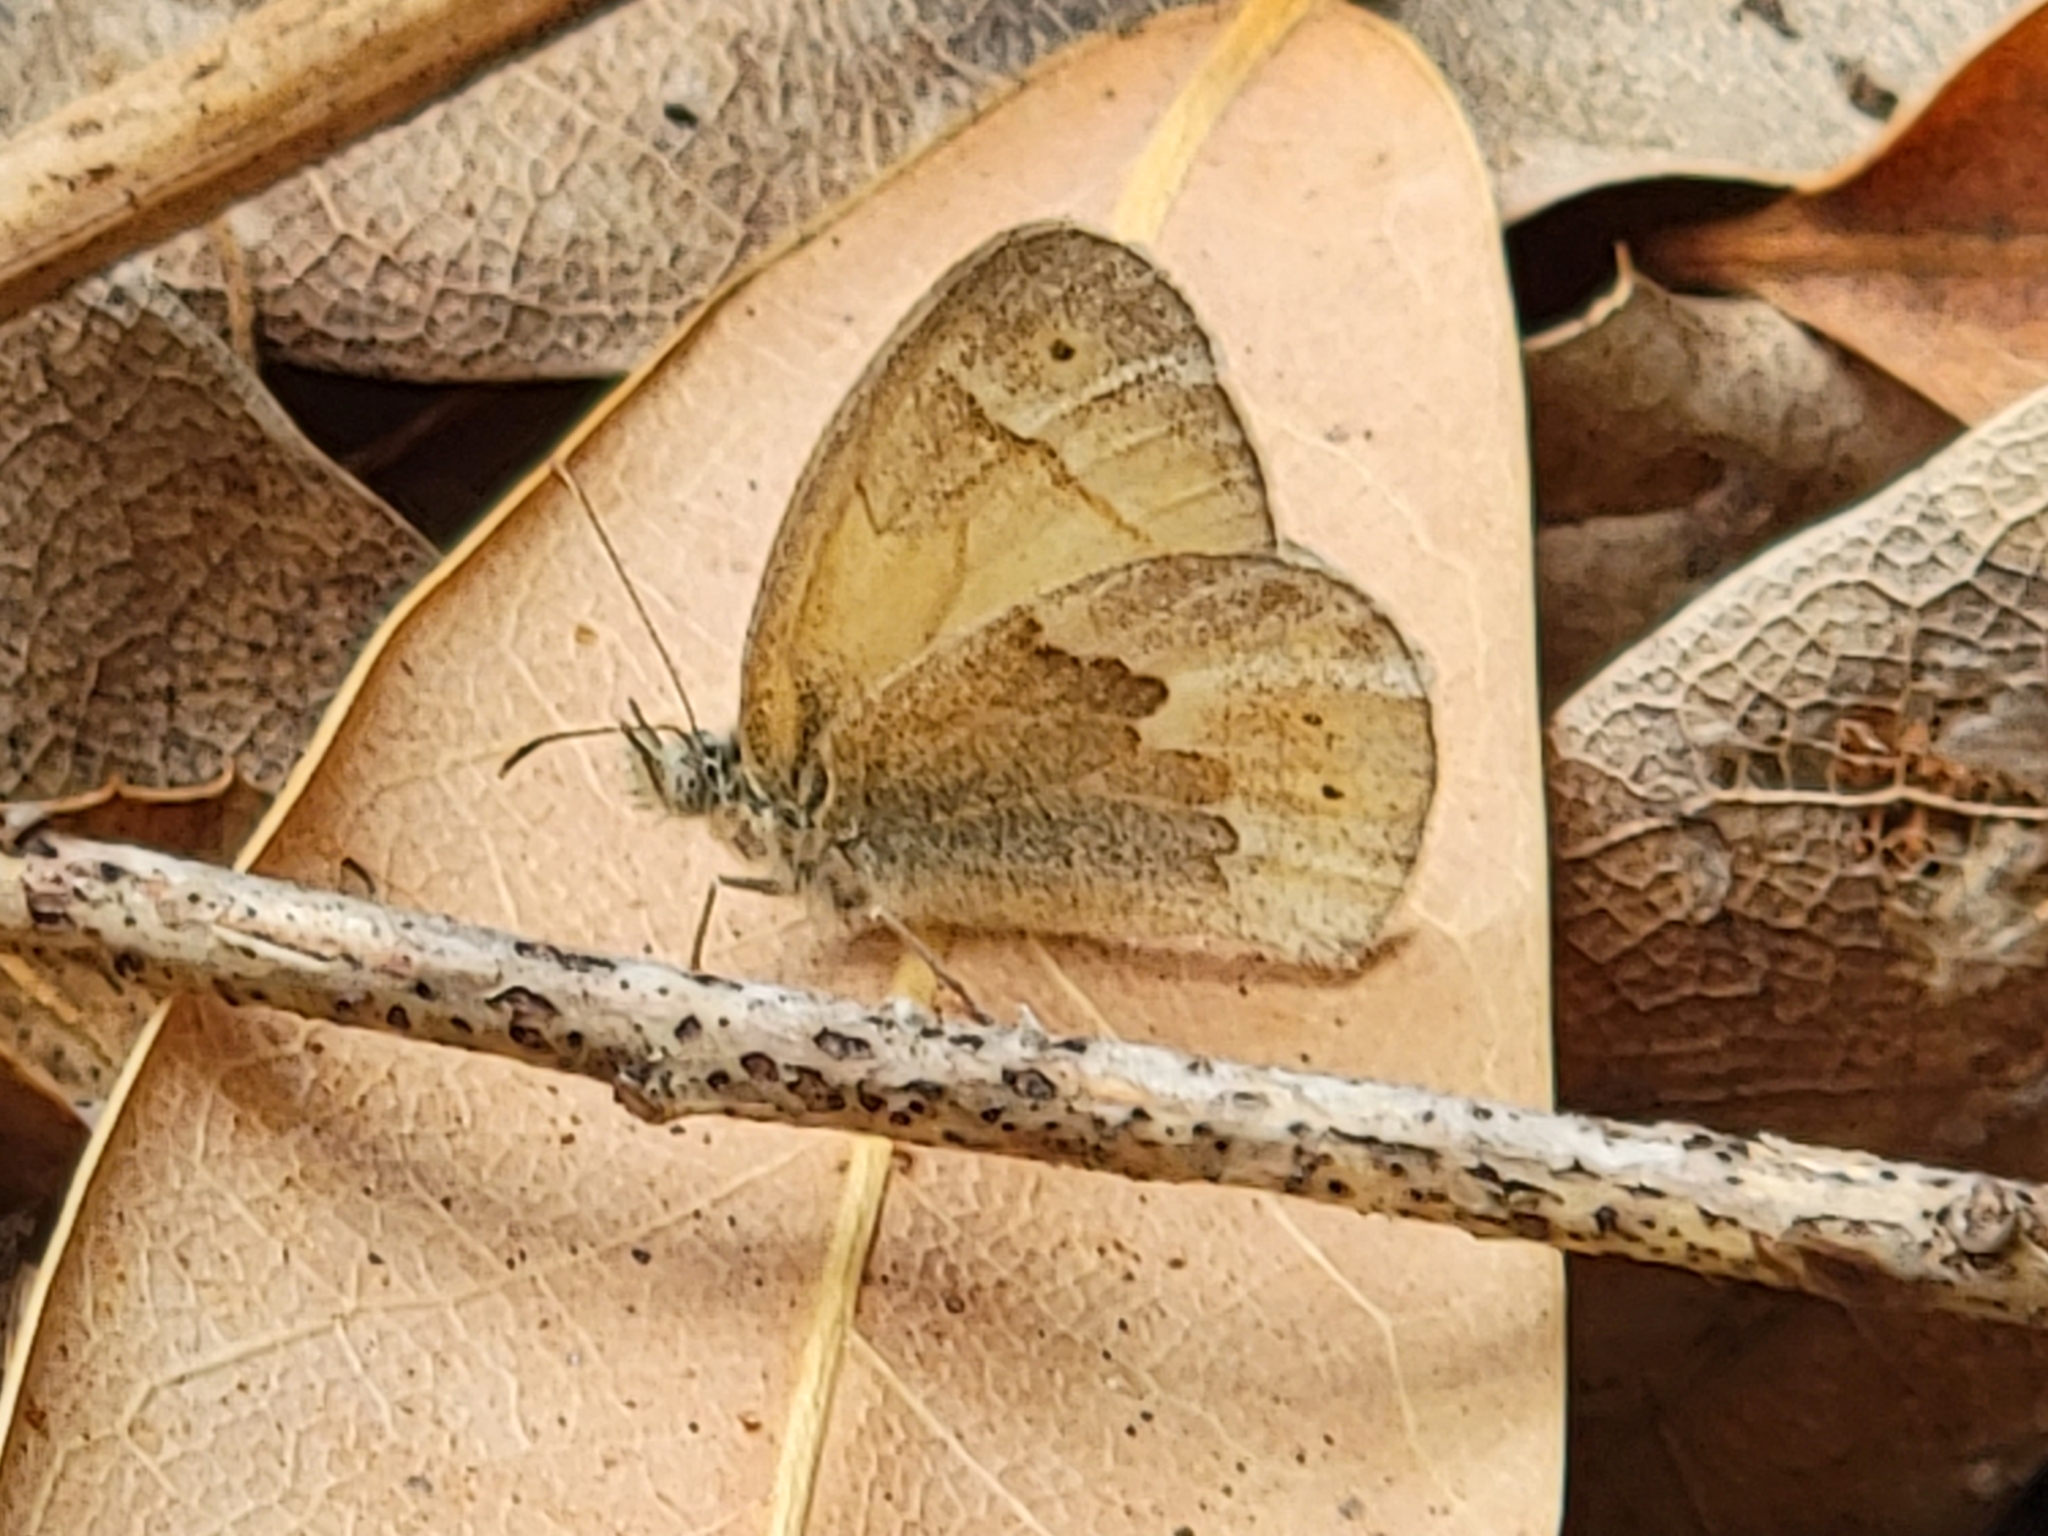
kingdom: Animalia
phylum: Arthropoda
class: Insecta
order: Lepidoptera
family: Nymphalidae
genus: Coenonympha
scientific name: Coenonympha california
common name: Common ringlet
